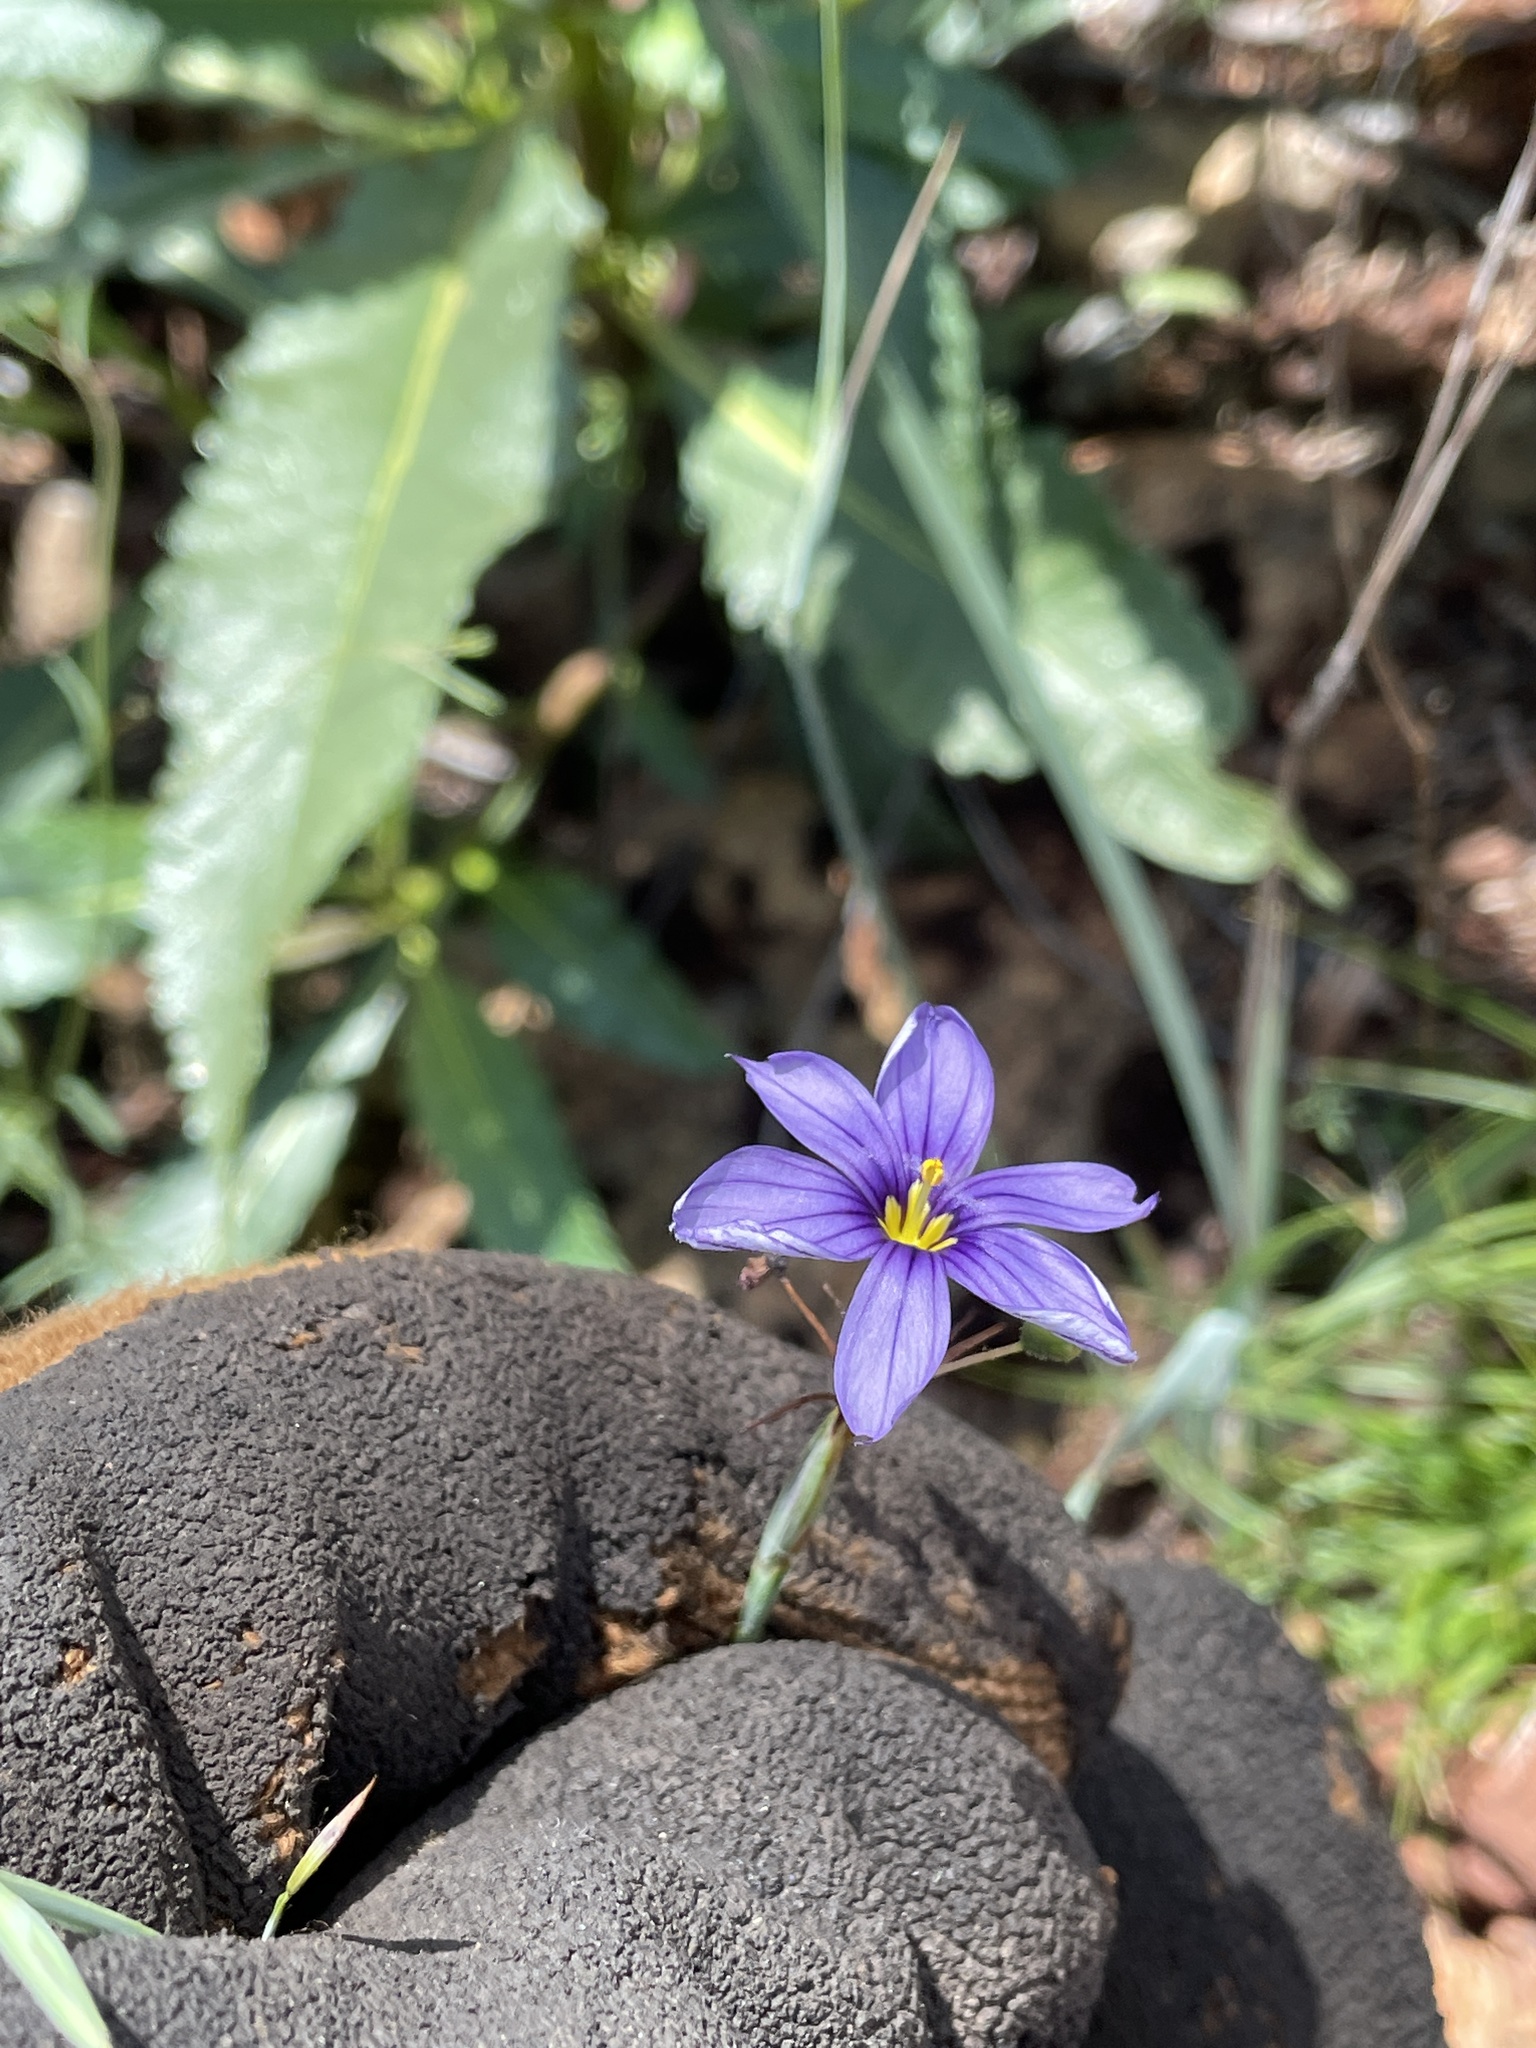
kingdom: Plantae
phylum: Tracheophyta
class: Liliopsida
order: Asparagales
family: Iridaceae
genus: Sisyrinchium
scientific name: Sisyrinchium bellum
